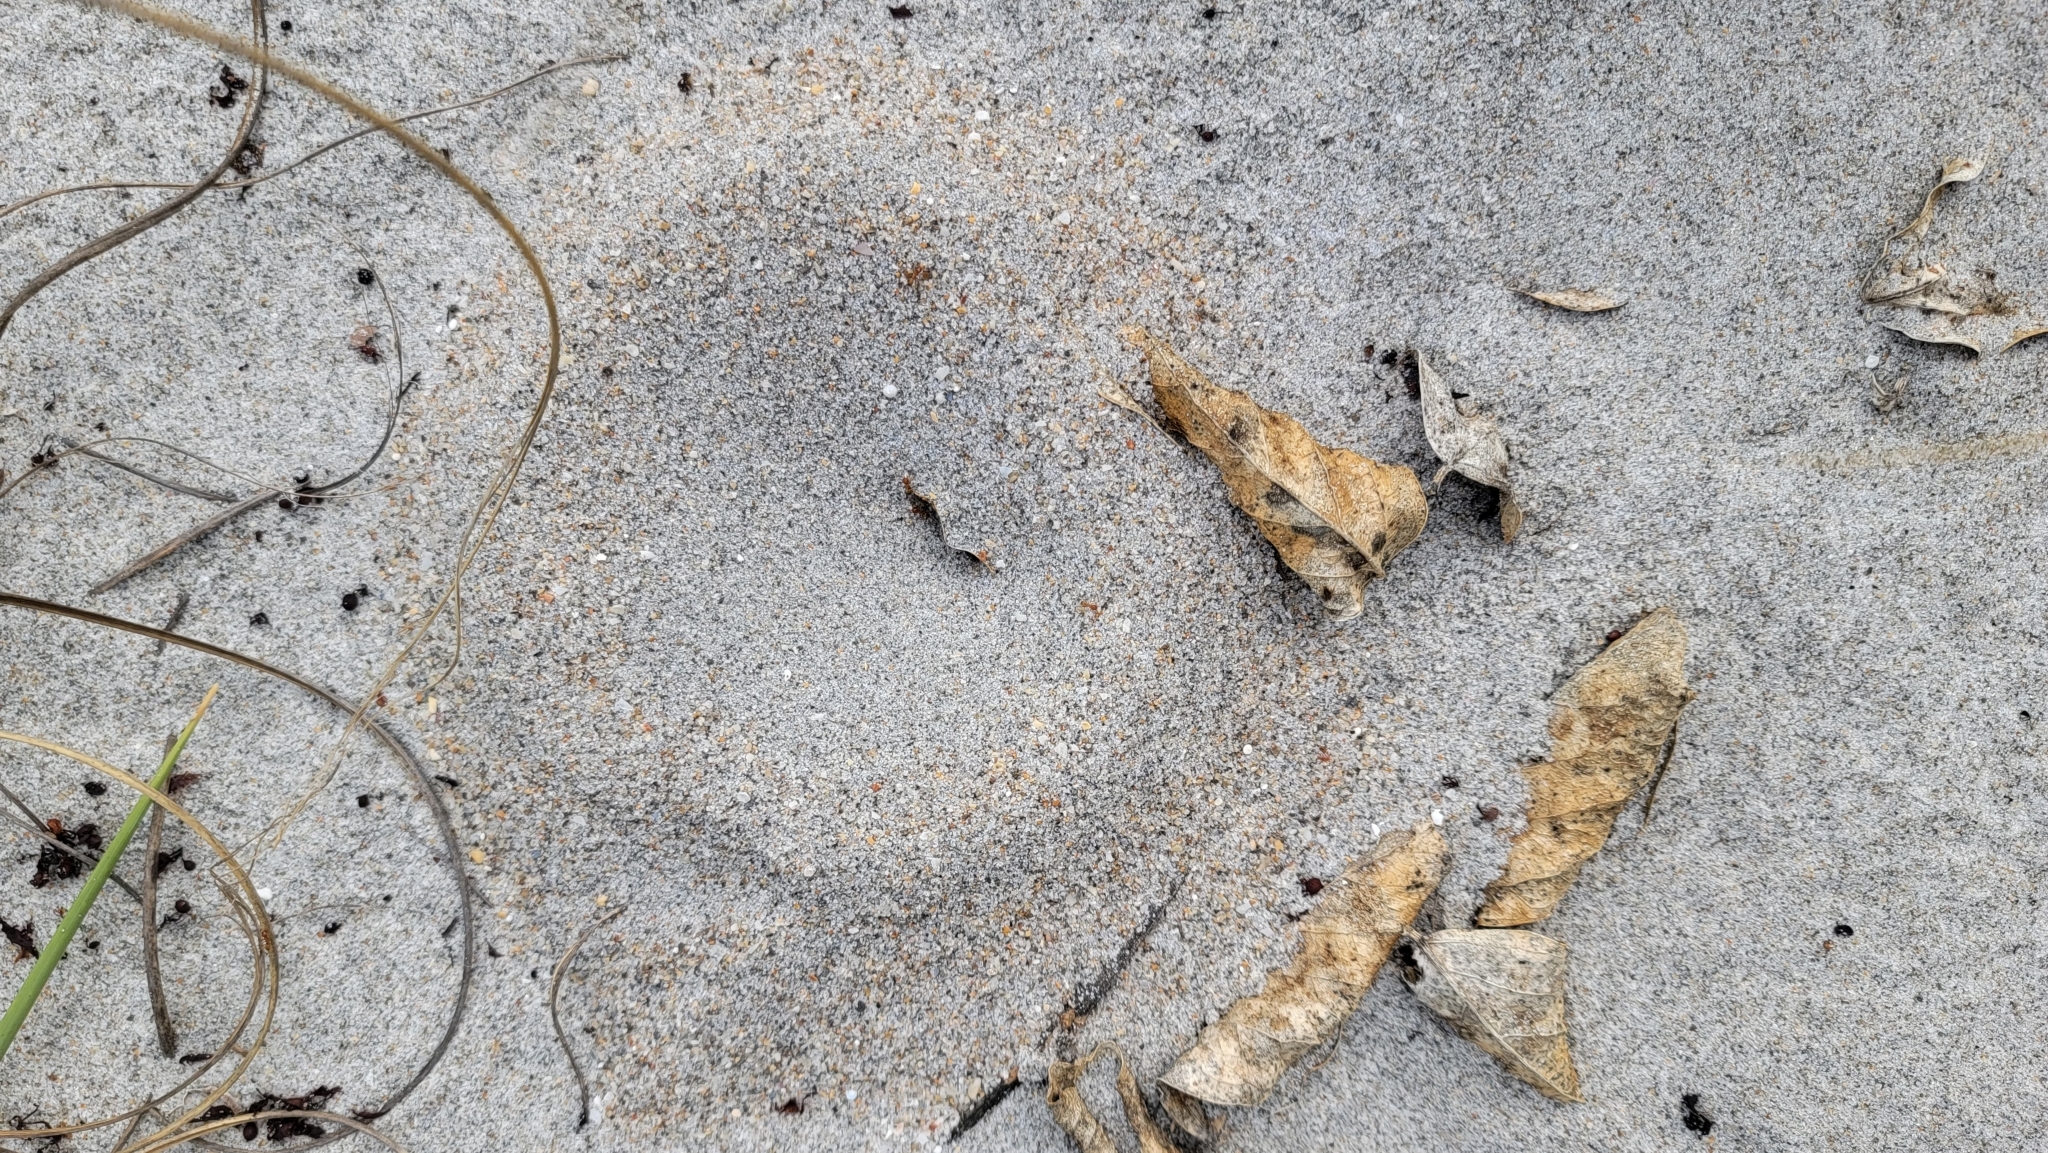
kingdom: Animalia
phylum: Arthropoda
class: Insecta
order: Hymenoptera
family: Formicidae
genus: Dorymyrmex
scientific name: Dorymyrmex bureni
